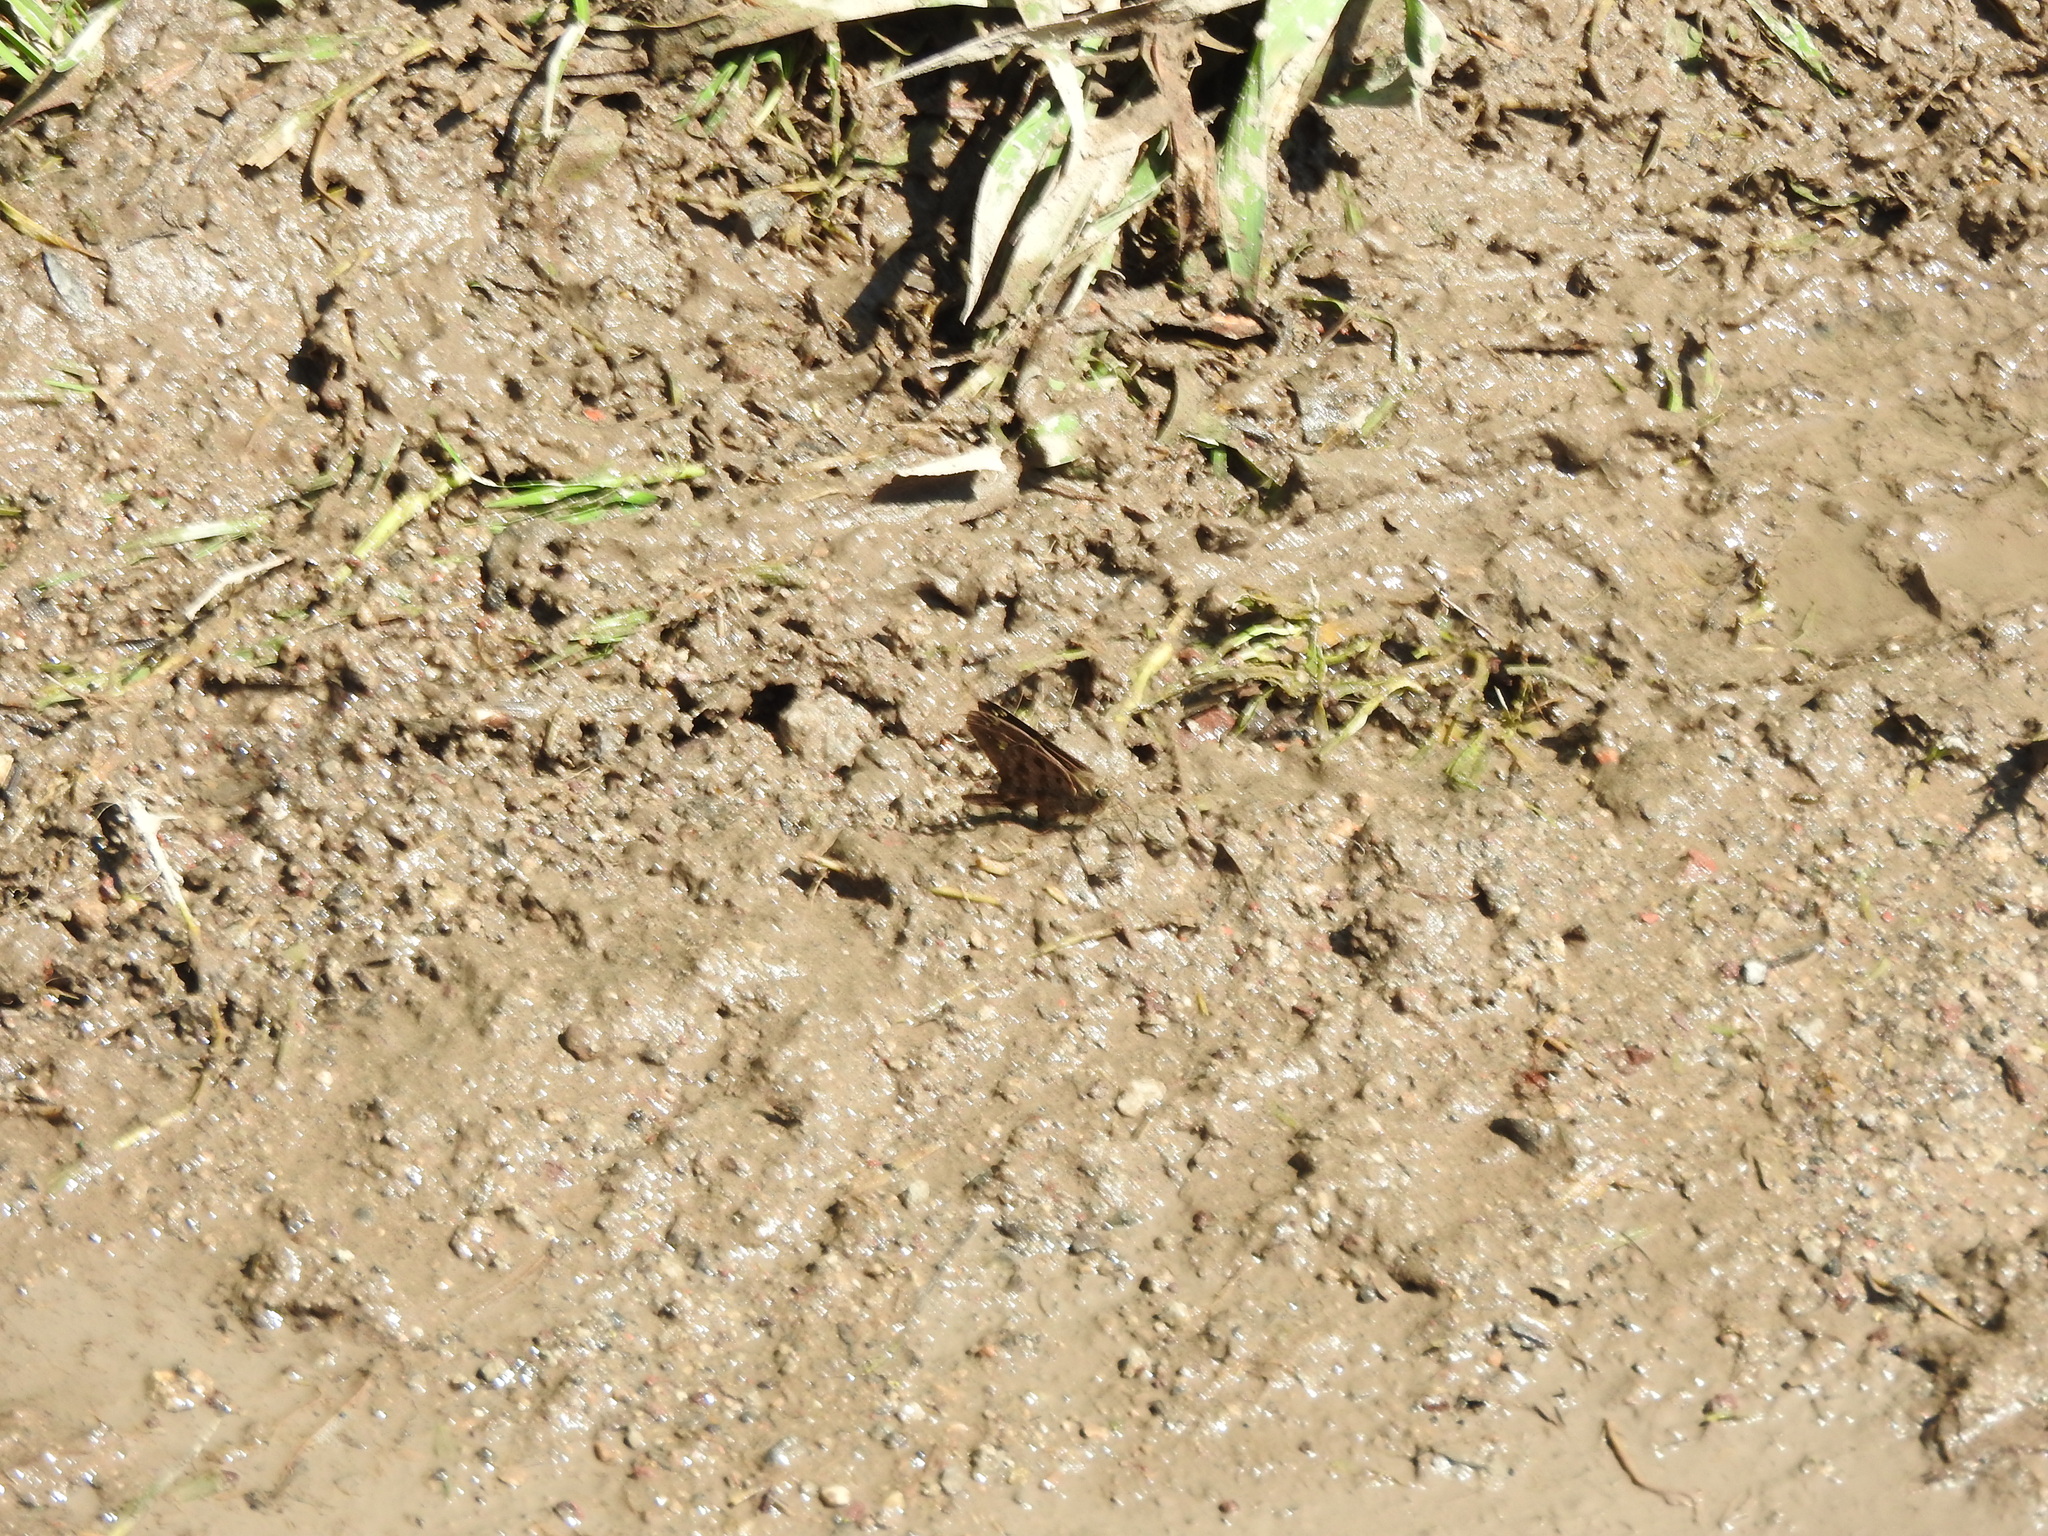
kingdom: Animalia
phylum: Arthropoda
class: Insecta
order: Lepidoptera
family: Hesperiidae
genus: Thorybes
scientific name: Thorybes
